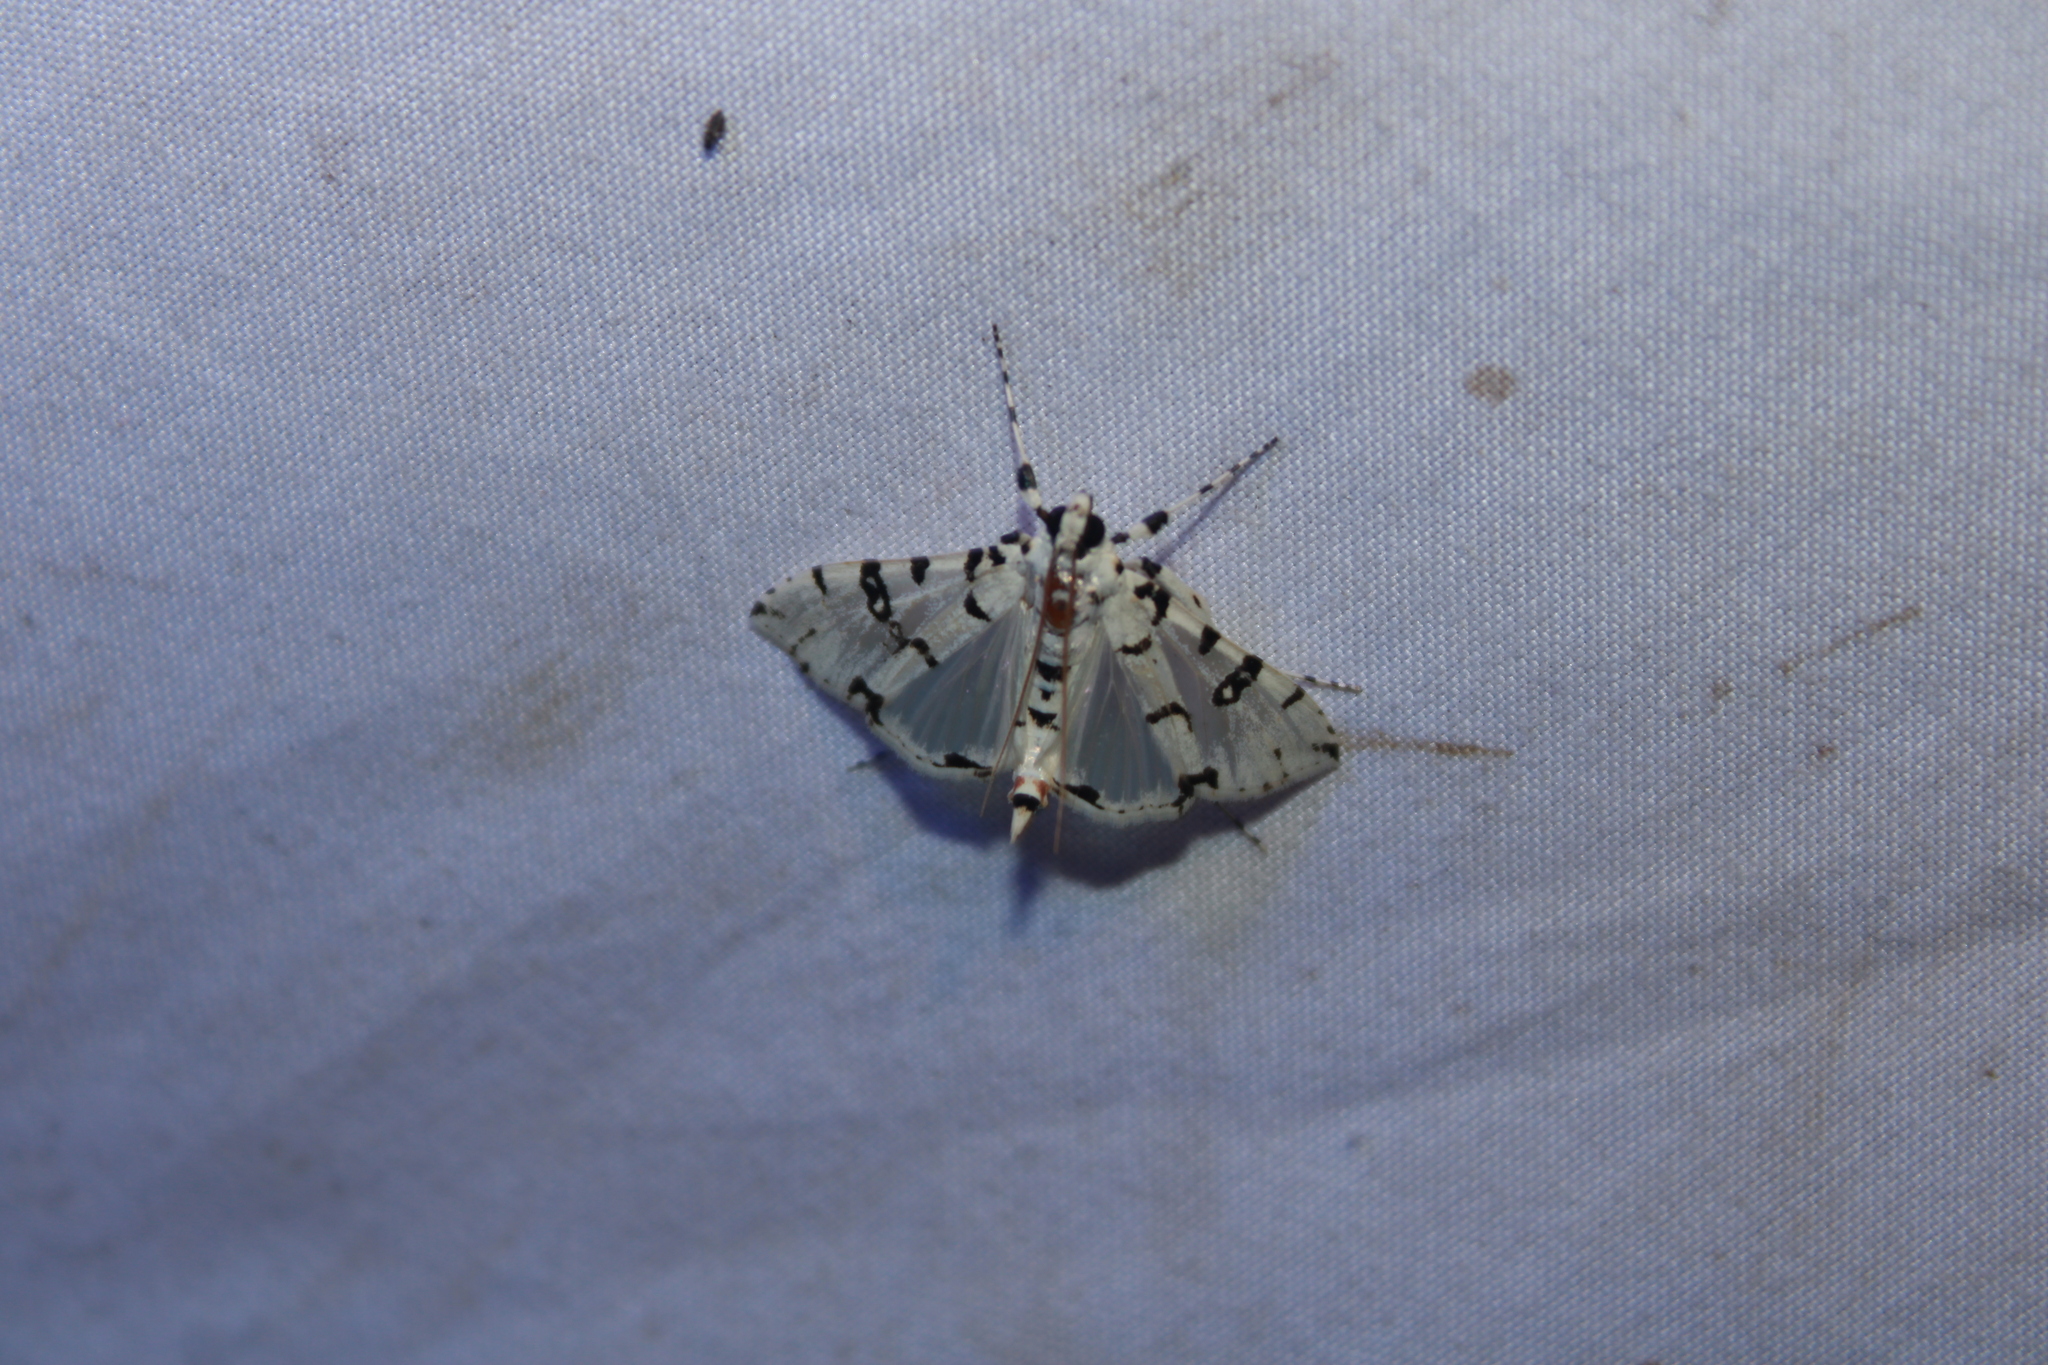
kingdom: Animalia
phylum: Arthropoda
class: Insecta
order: Lepidoptera
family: Crambidae
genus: Conchylodes
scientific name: Conchylodes diphteralis
